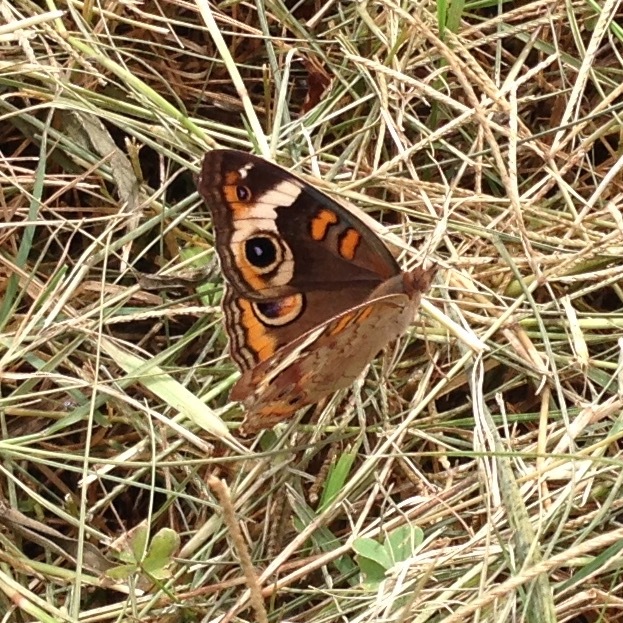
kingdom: Animalia
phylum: Arthropoda
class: Insecta
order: Lepidoptera
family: Nymphalidae
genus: Junonia
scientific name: Junonia coenia
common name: Common buckeye
